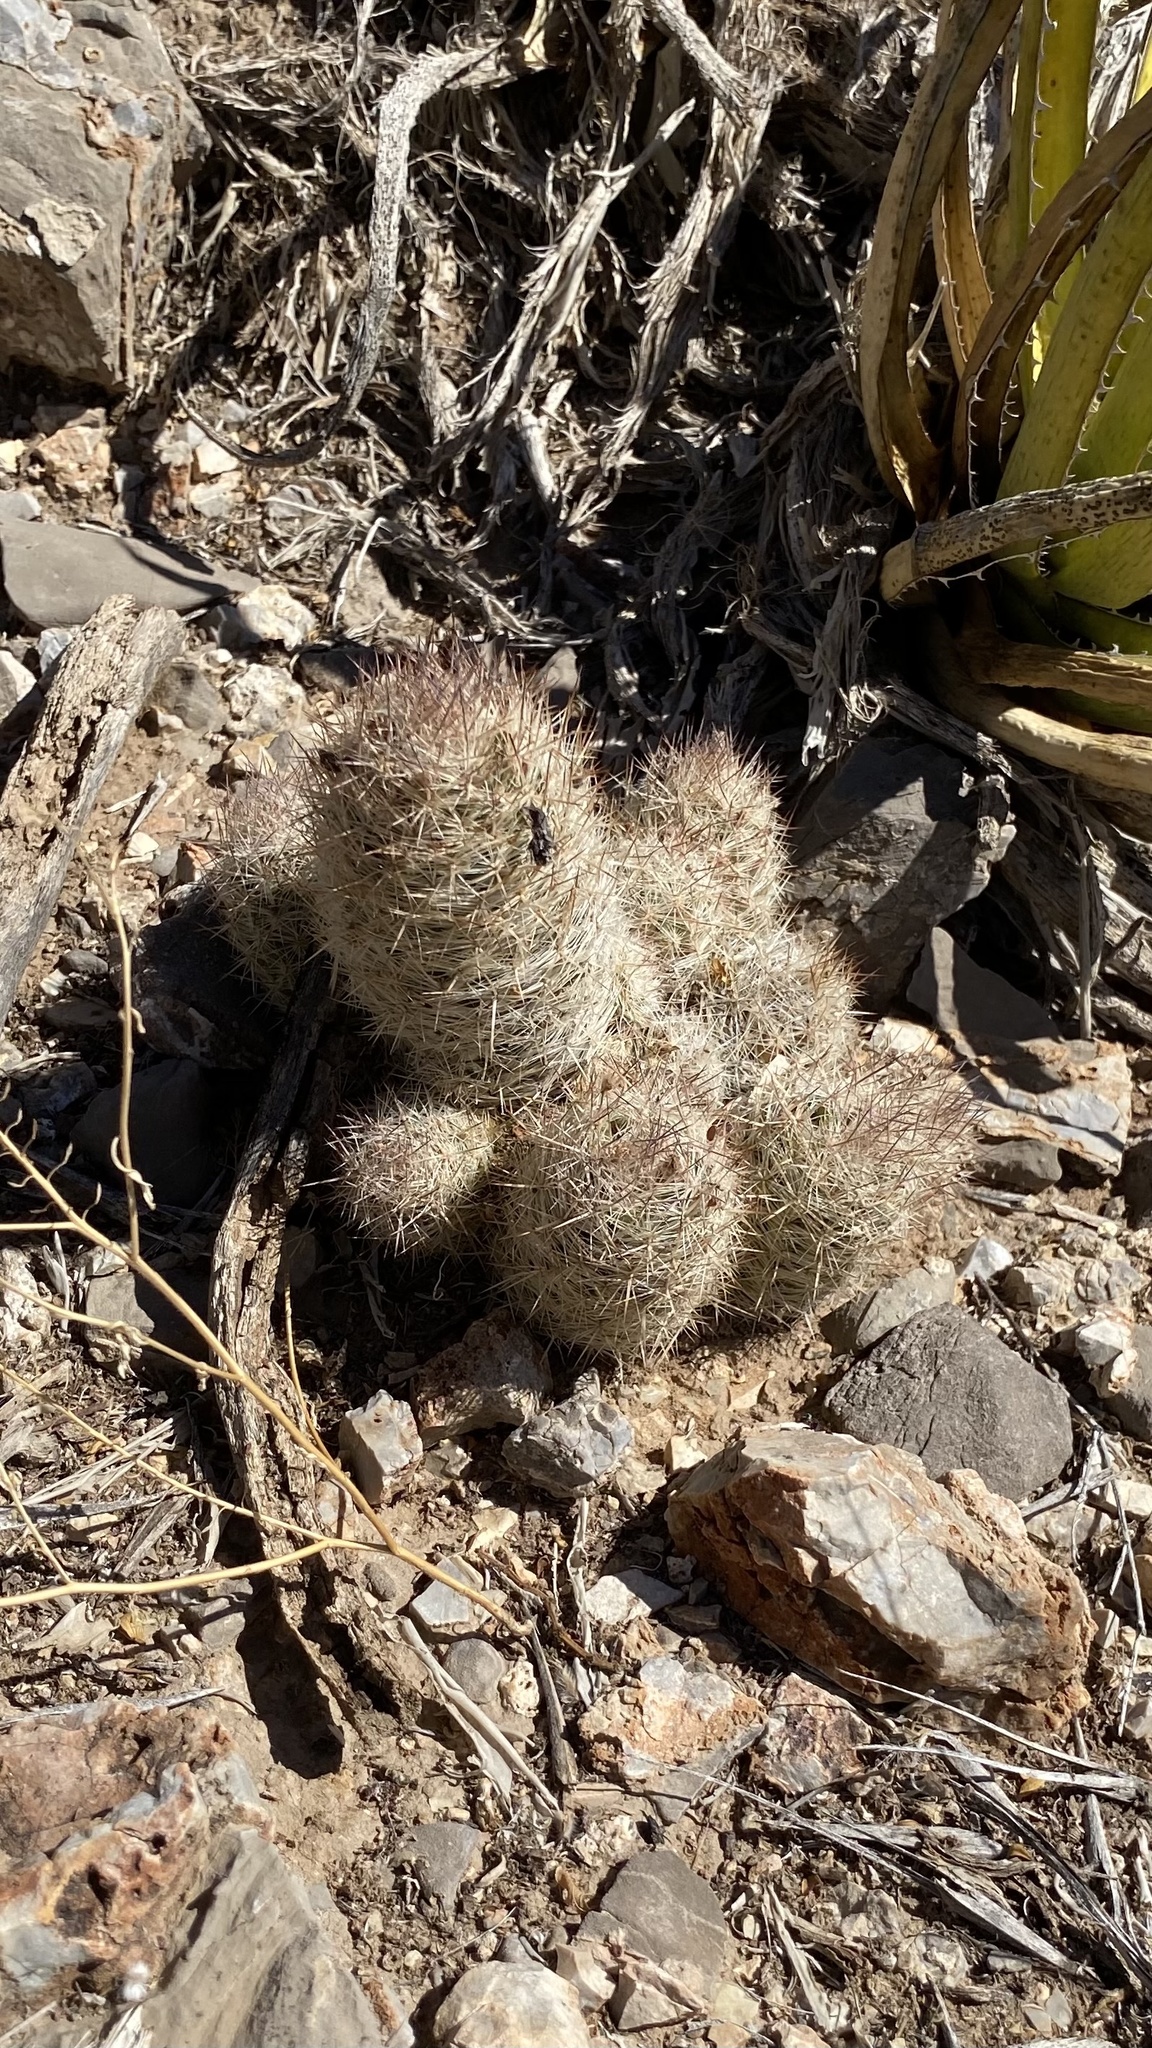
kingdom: Plantae
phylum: Tracheophyta
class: Magnoliopsida
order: Caryophyllales
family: Cactaceae
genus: Pelecyphora
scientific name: Pelecyphora tuberculosa
